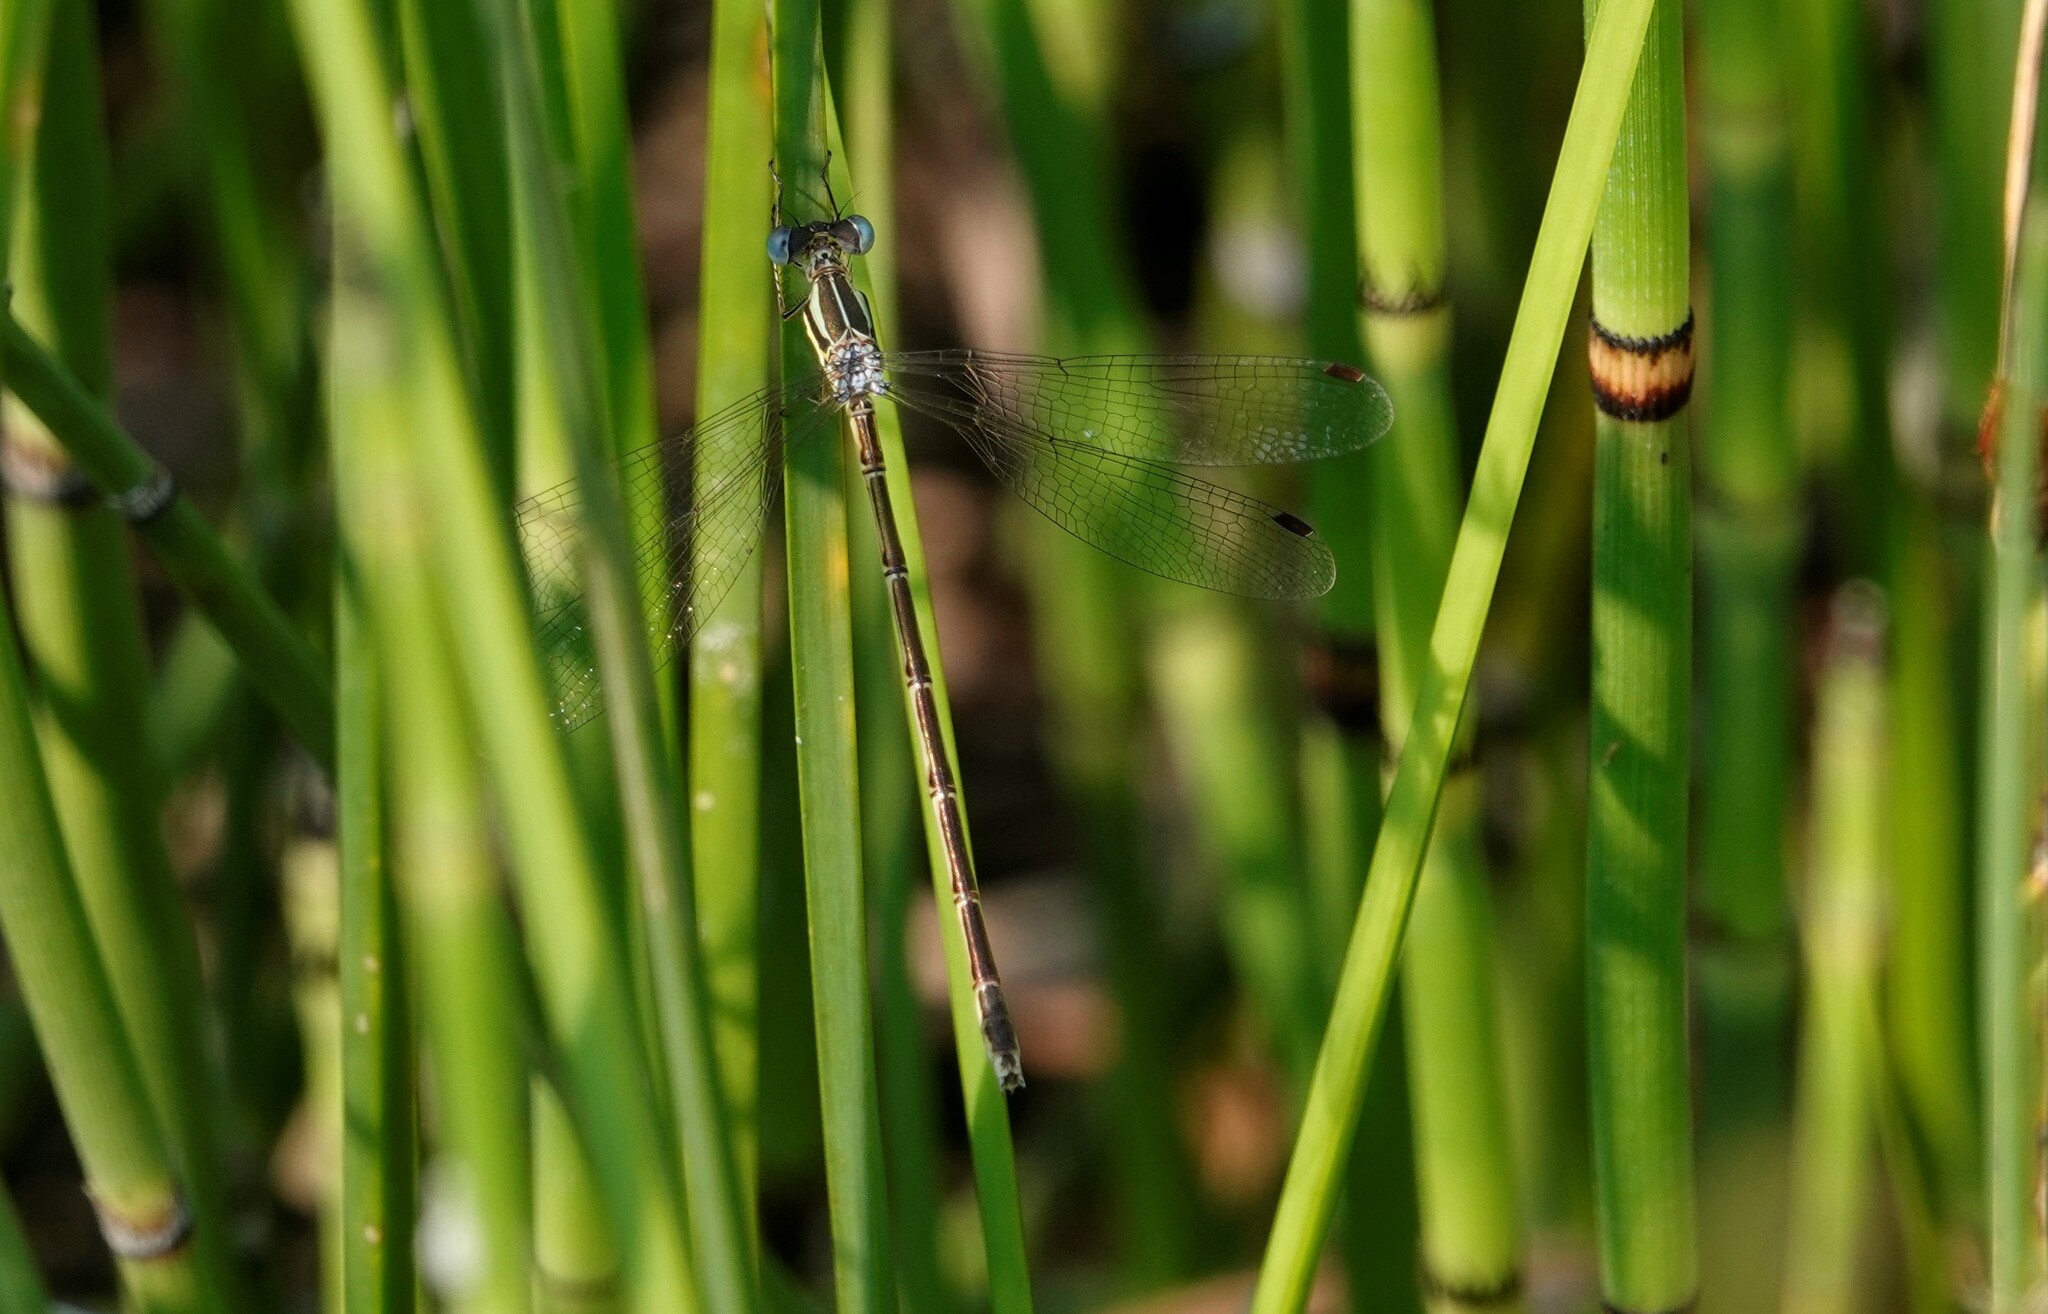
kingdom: Animalia
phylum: Arthropoda
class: Insecta
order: Odonata
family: Lestidae
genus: Lestes
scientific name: Lestes rectangularis
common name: Slender spreadwing
